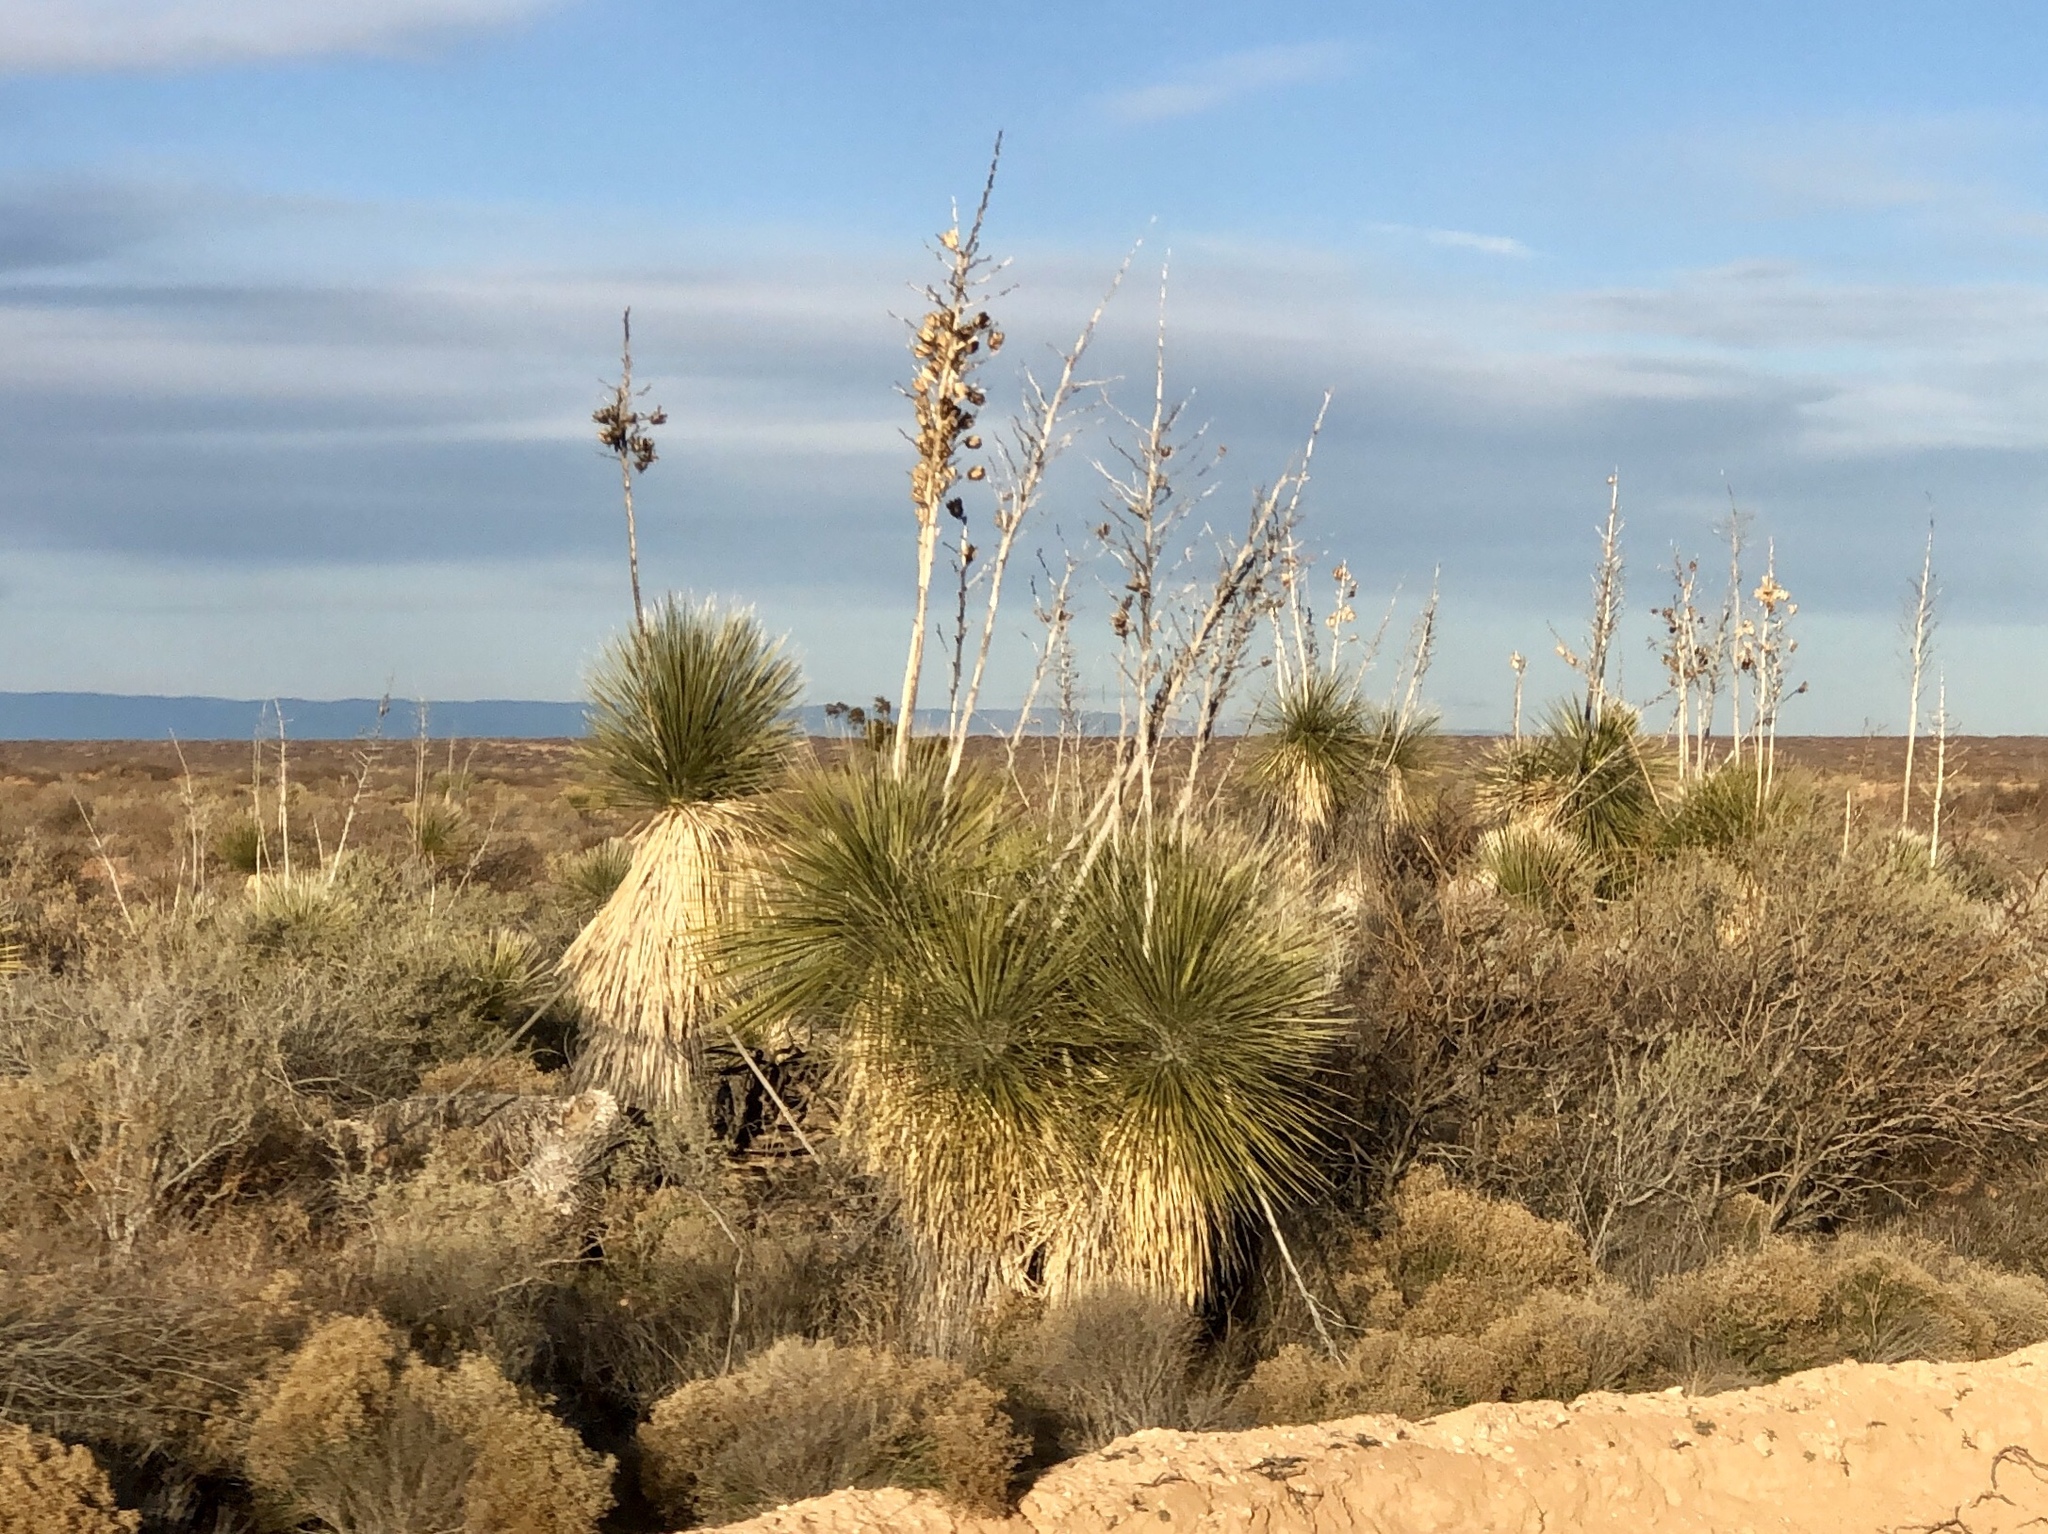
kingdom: Plantae
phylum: Tracheophyta
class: Liliopsida
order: Asparagales
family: Asparagaceae
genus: Yucca
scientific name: Yucca elata
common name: Palmella
